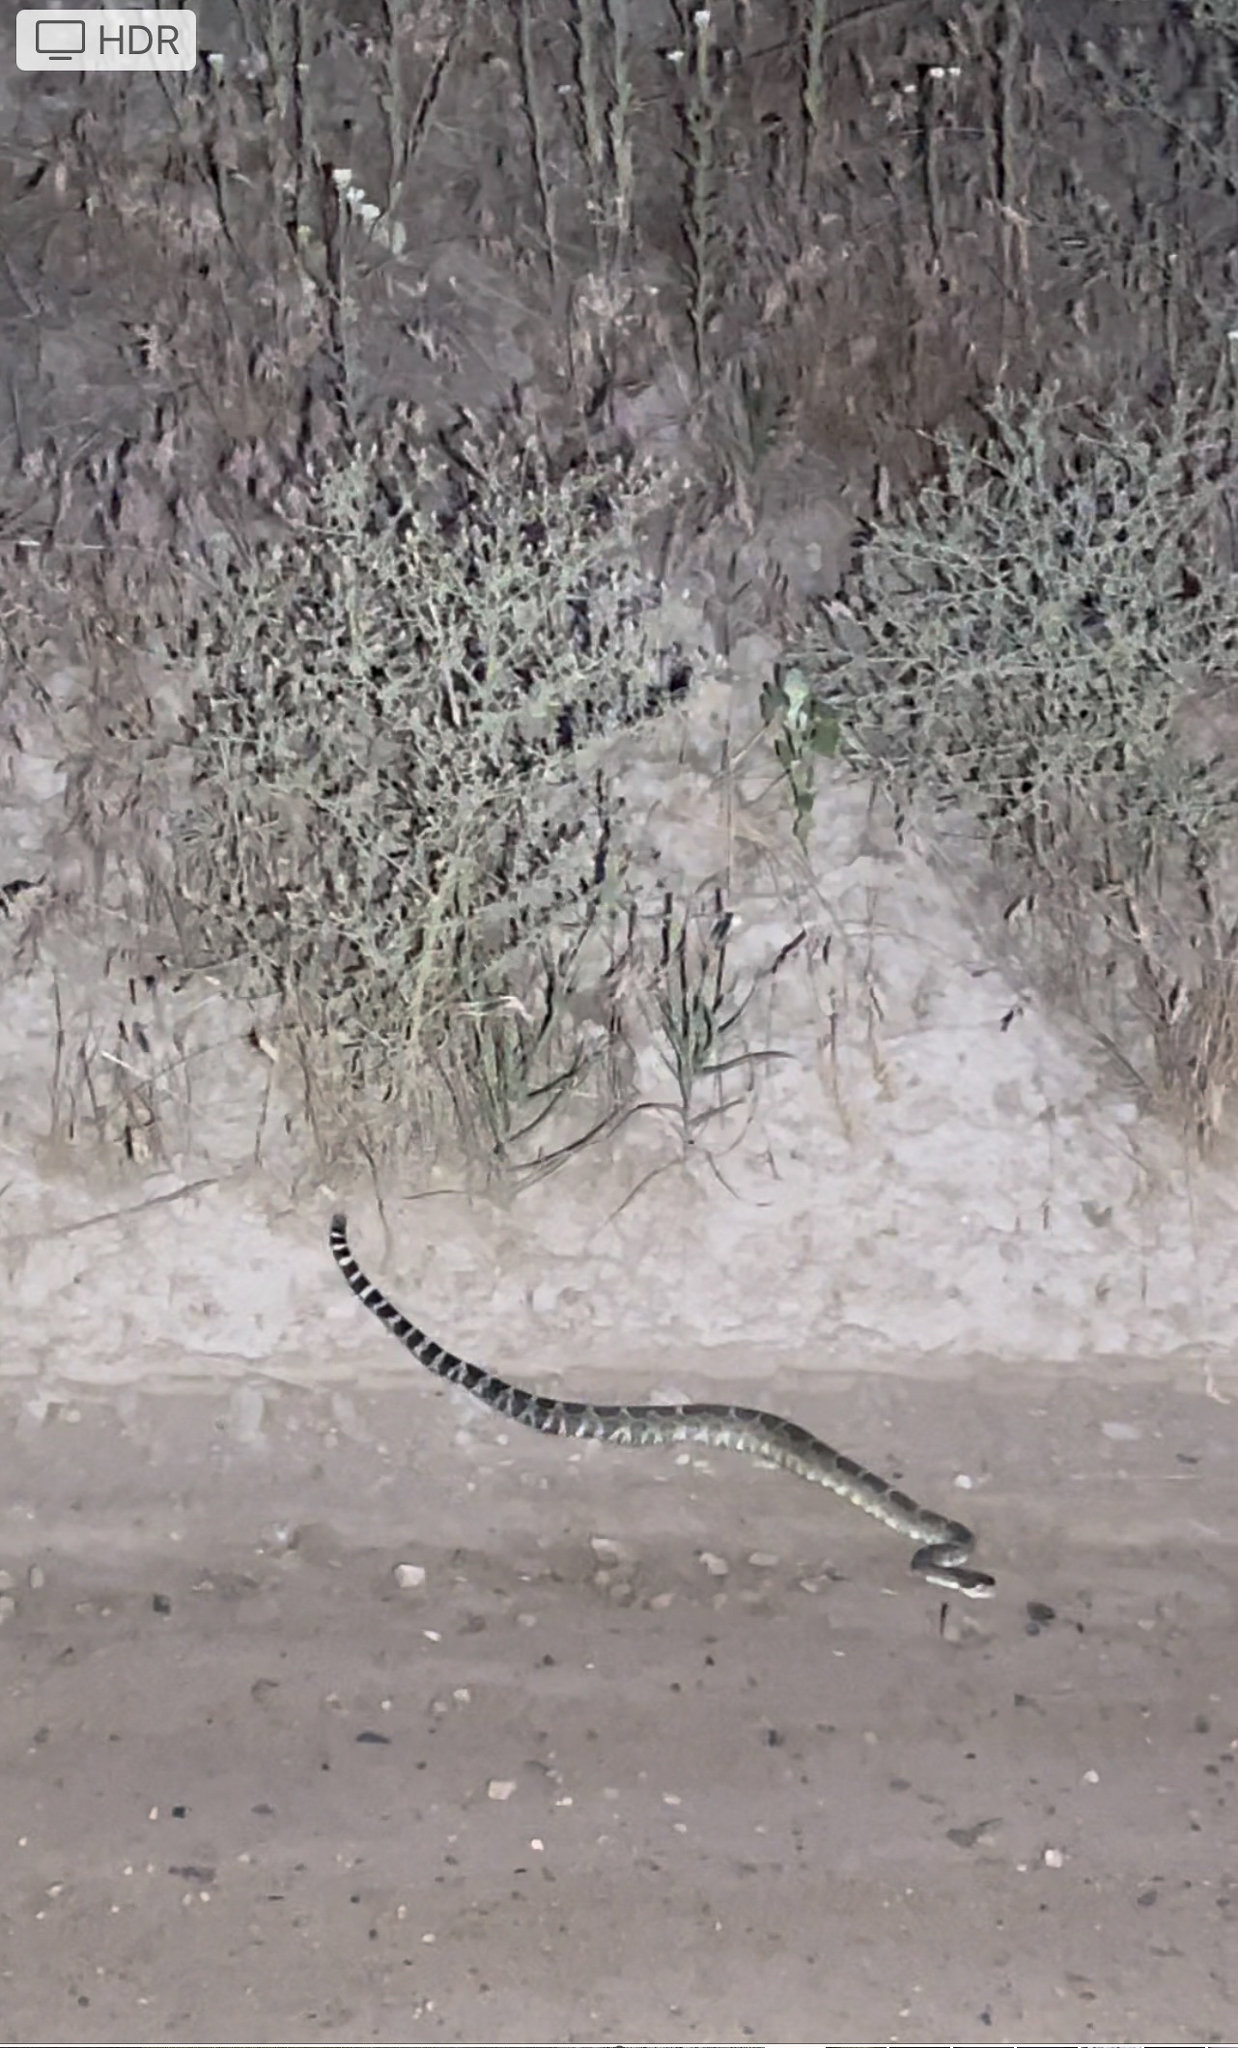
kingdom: Animalia
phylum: Chordata
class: Squamata
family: Viperidae
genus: Crotalus
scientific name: Crotalus oreganus
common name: Abyssus
